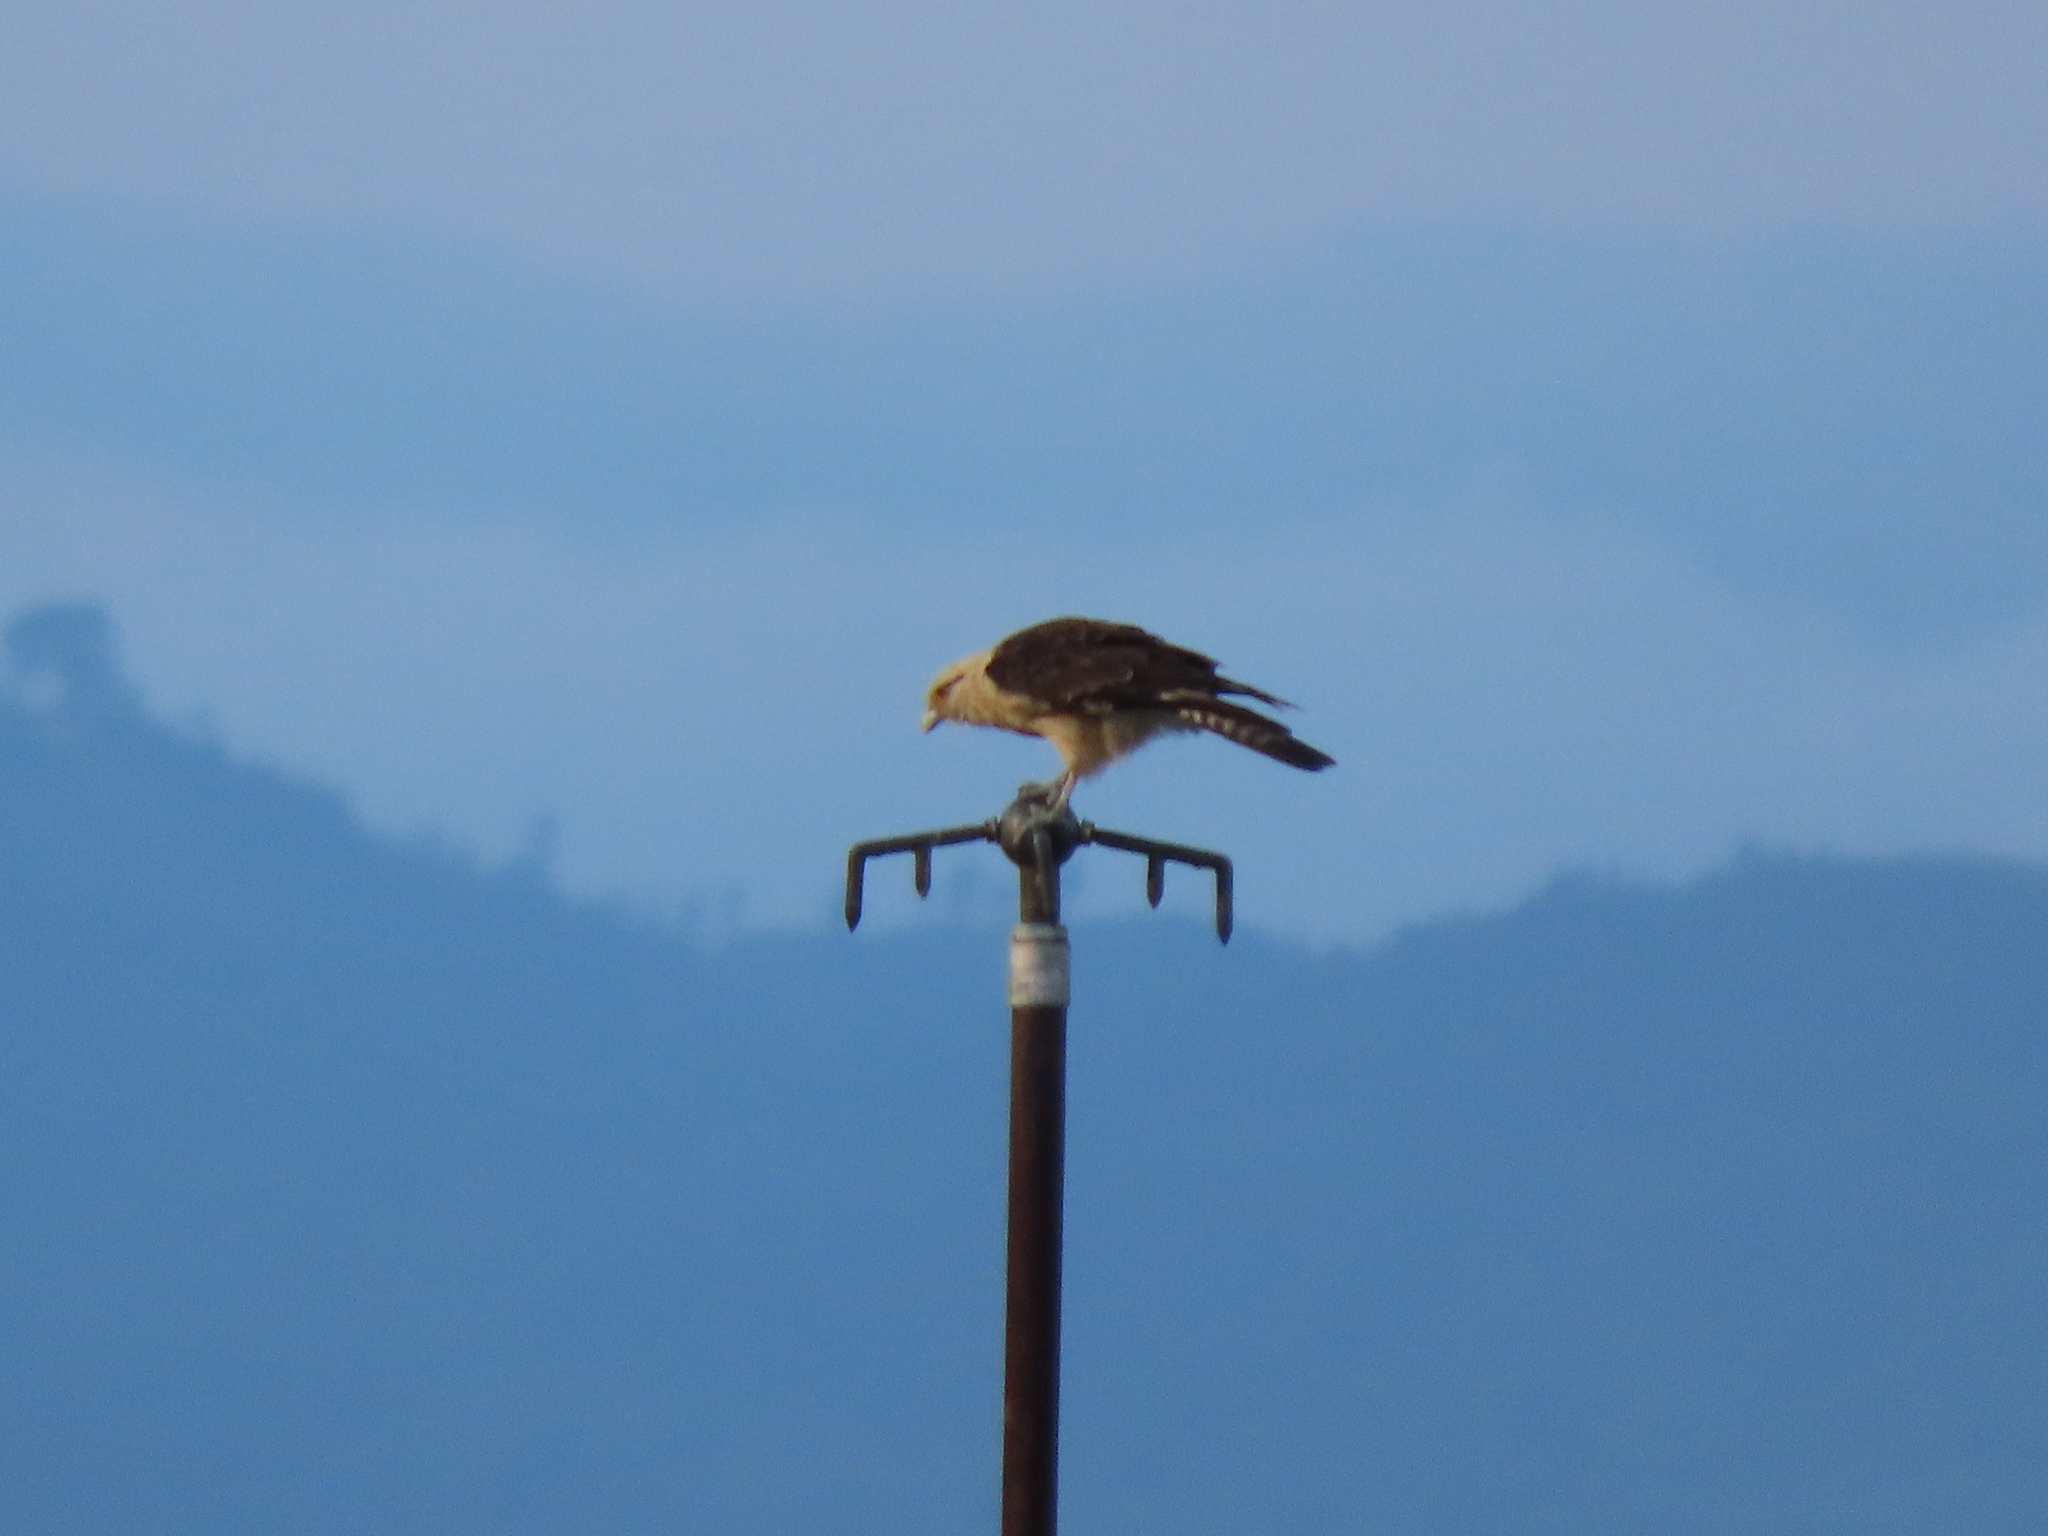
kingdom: Animalia
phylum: Chordata
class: Aves
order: Falconiformes
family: Falconidae
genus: Daptrius
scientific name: Daptrius
